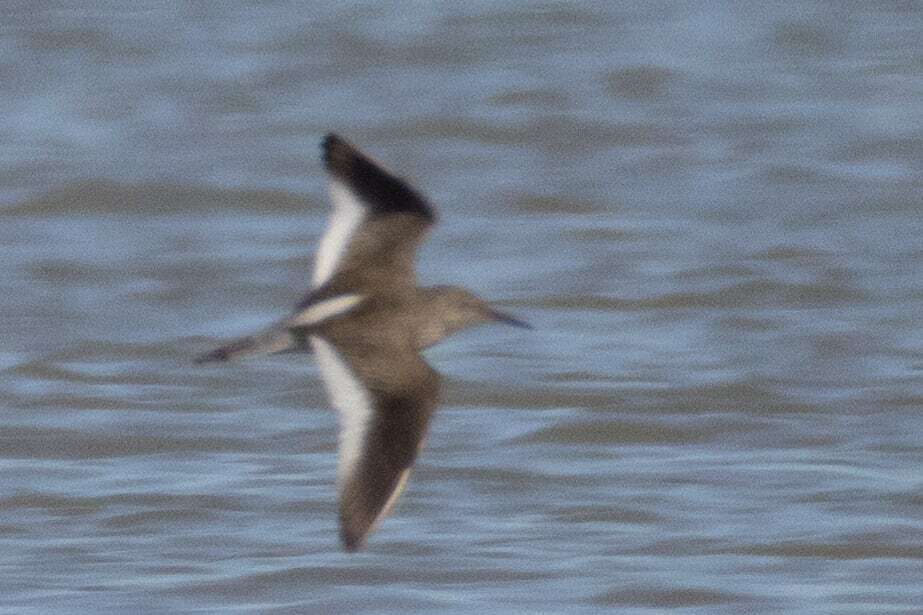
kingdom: Animalia
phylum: Chordata
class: Aves
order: Charadriiformes
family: Scolopacidae
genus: Tringa
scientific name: Tringa totanus
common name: Common redshank
